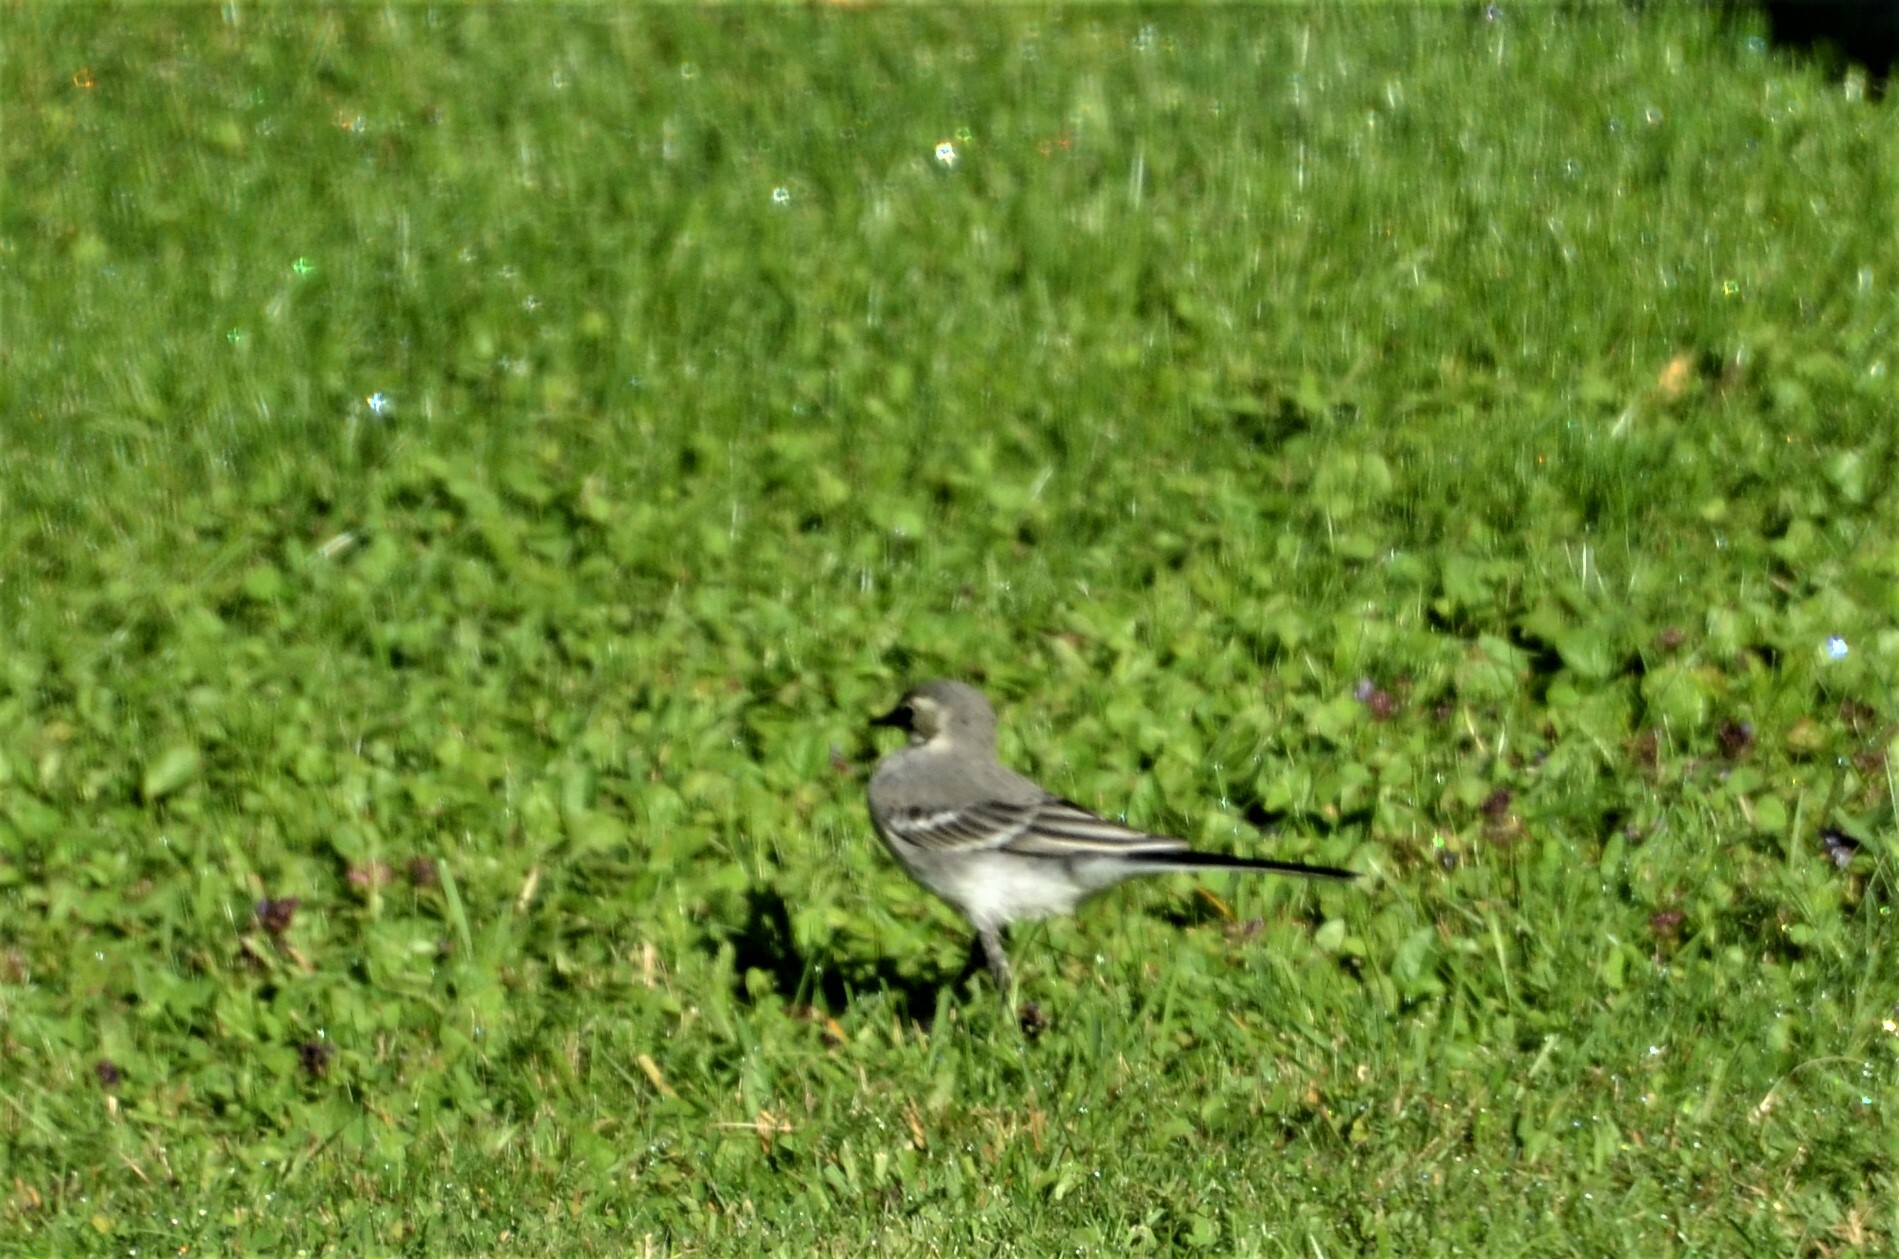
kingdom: Animalia
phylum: Chordata
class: Aves
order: Passeriformes
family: Motacillidae
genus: Motacilla
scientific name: Motacilla alba
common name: White wagtail
